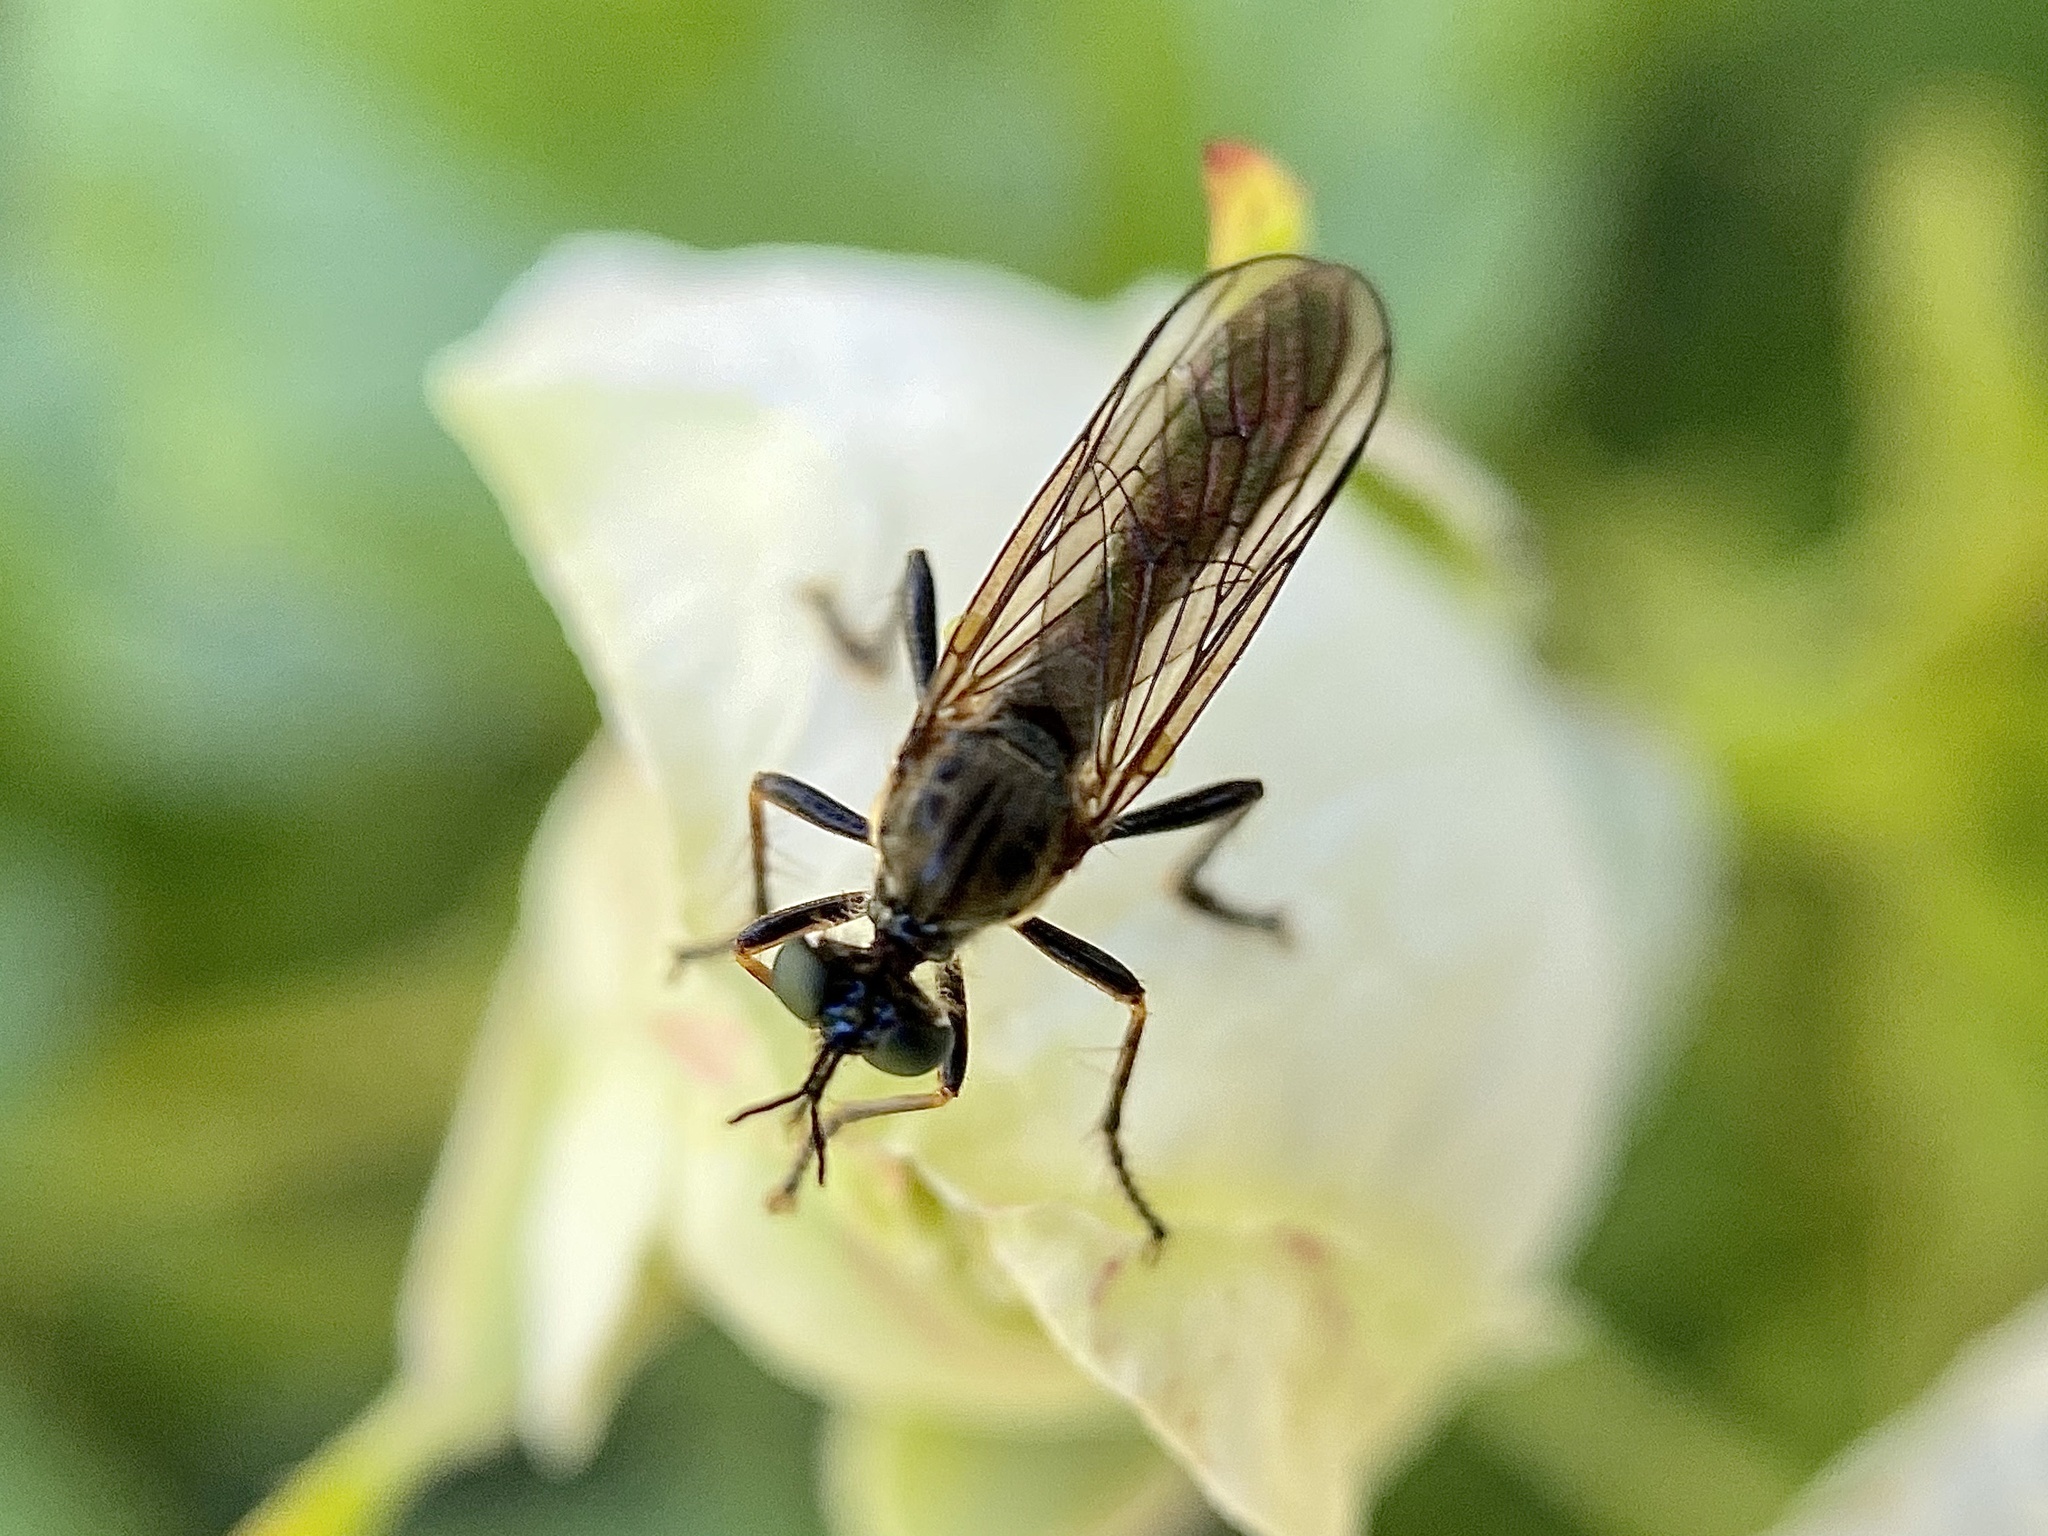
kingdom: Animalia
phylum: Arthropoda
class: Insecta
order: Diptera
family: Asilidae
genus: Dioctria
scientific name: Dioctria hyalipennis
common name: Stripe-legged robberfly
